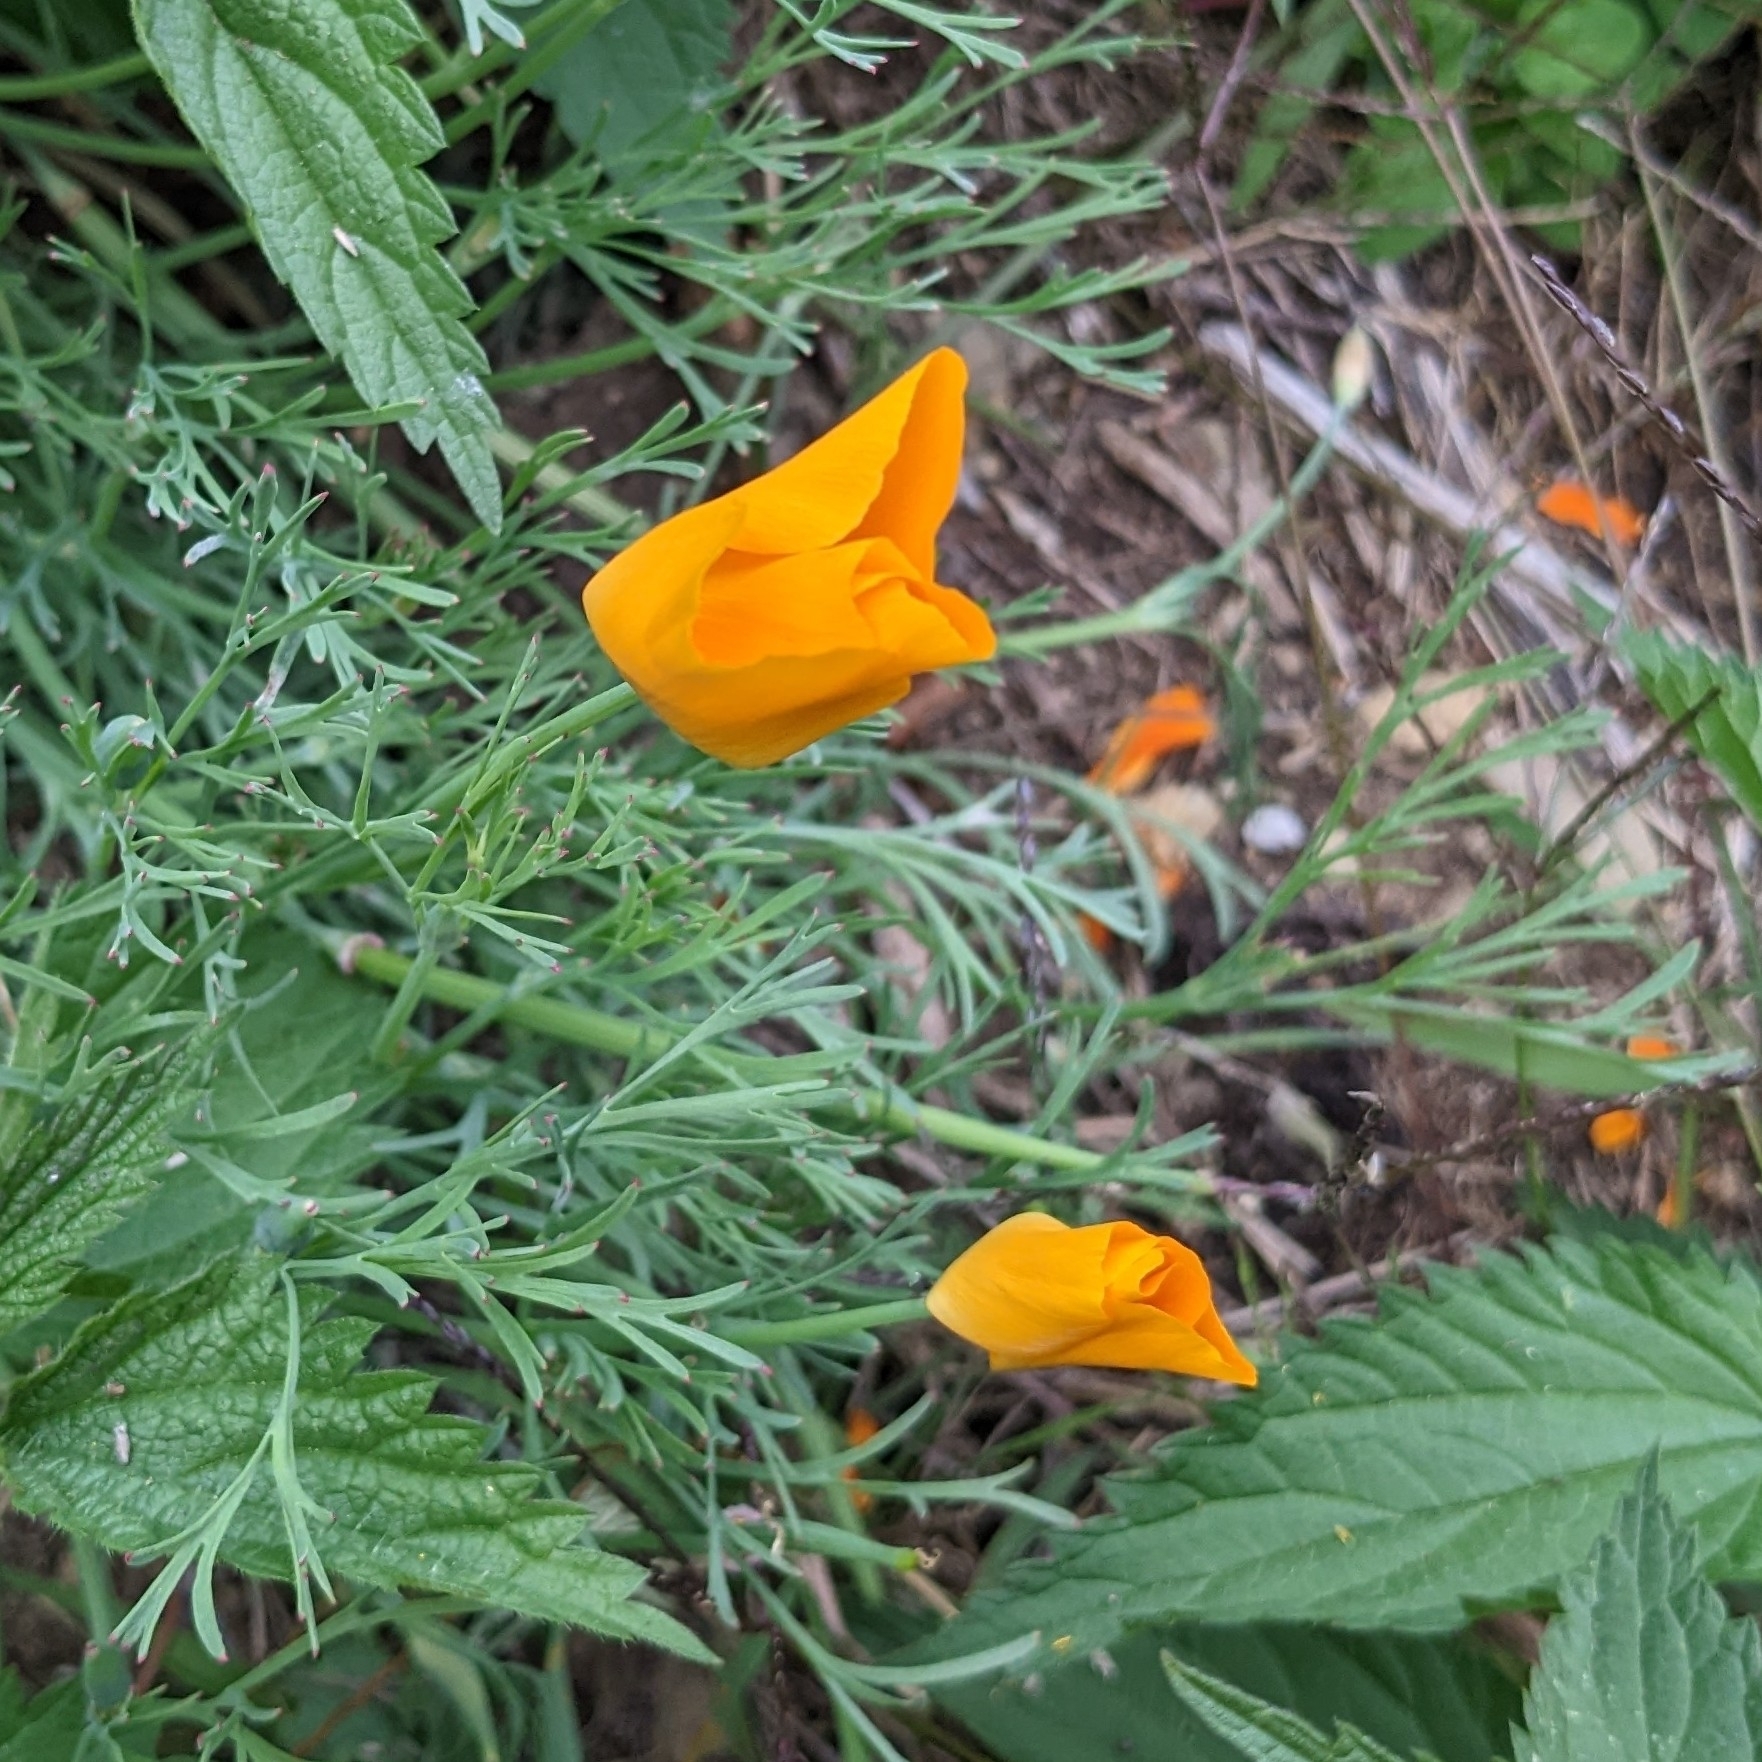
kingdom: Plantae
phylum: Tracheophyta
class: Magnoliopsida
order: Ranunculales
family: Papaveraceae
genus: Eschscholzia
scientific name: Eschscholzia californica
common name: California poppy
